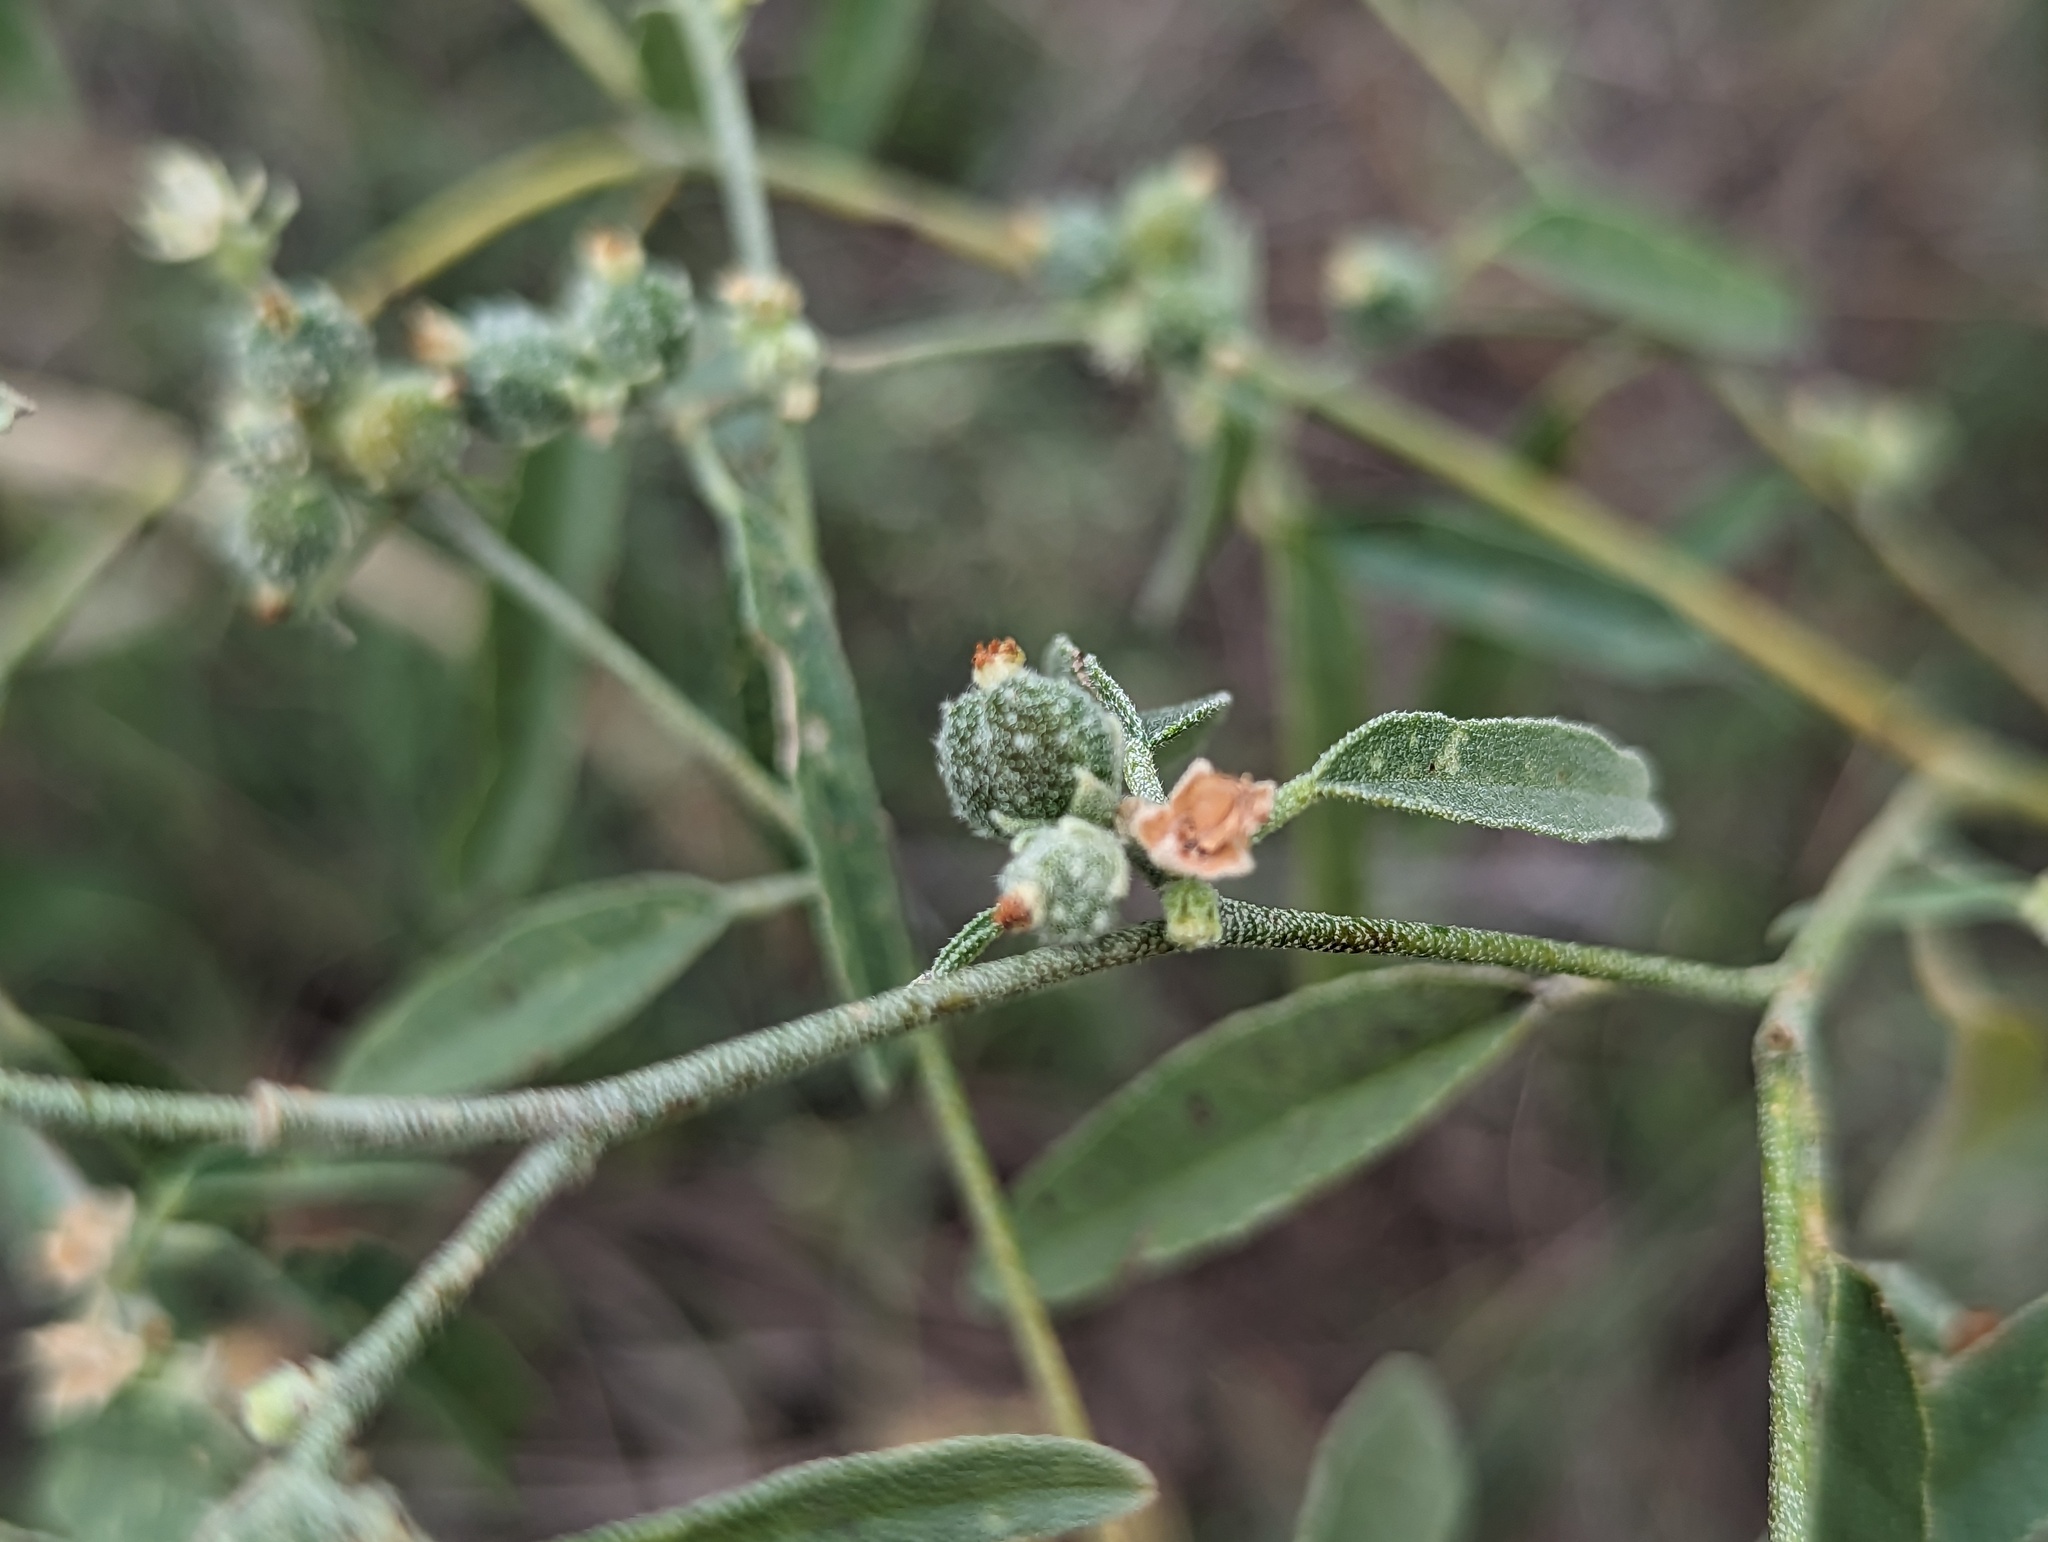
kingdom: Plantae
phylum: Tracheophyta
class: Magnoliopsida
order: Malpighiales
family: Euphorbiaceae
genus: Croton
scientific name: Croton texensis
